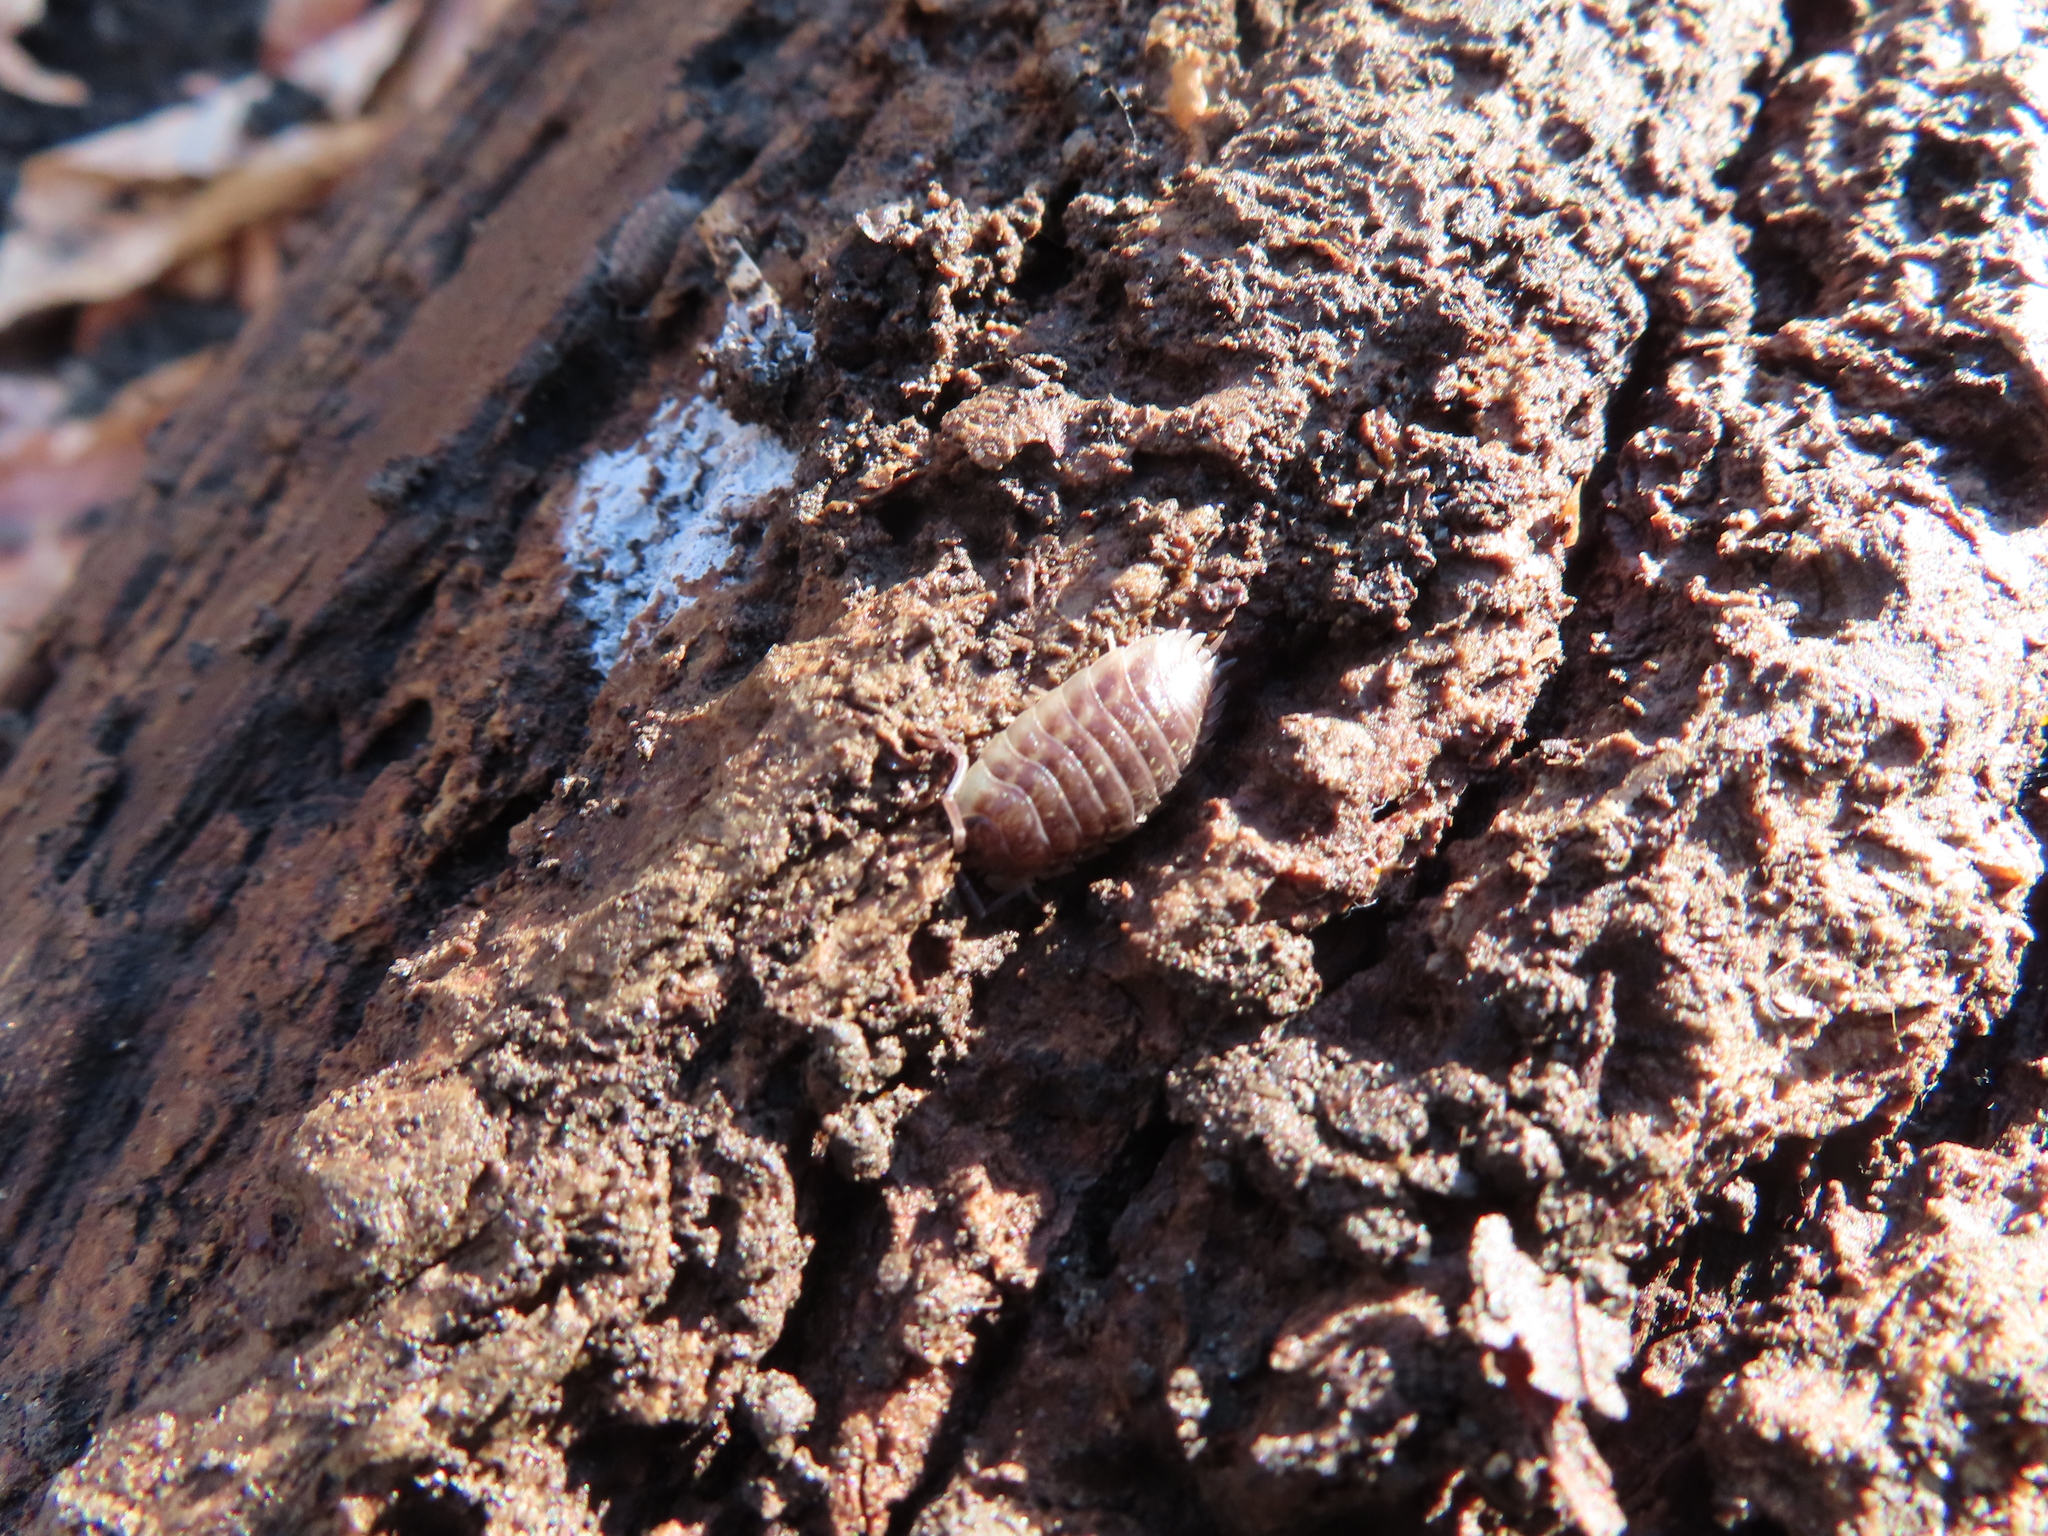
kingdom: Animalia
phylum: Arthropoda
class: Malacostraca
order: Isopoda
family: Oniscidae
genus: Oniscus
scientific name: Oniscus asellus
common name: Common shiny woodlouse
